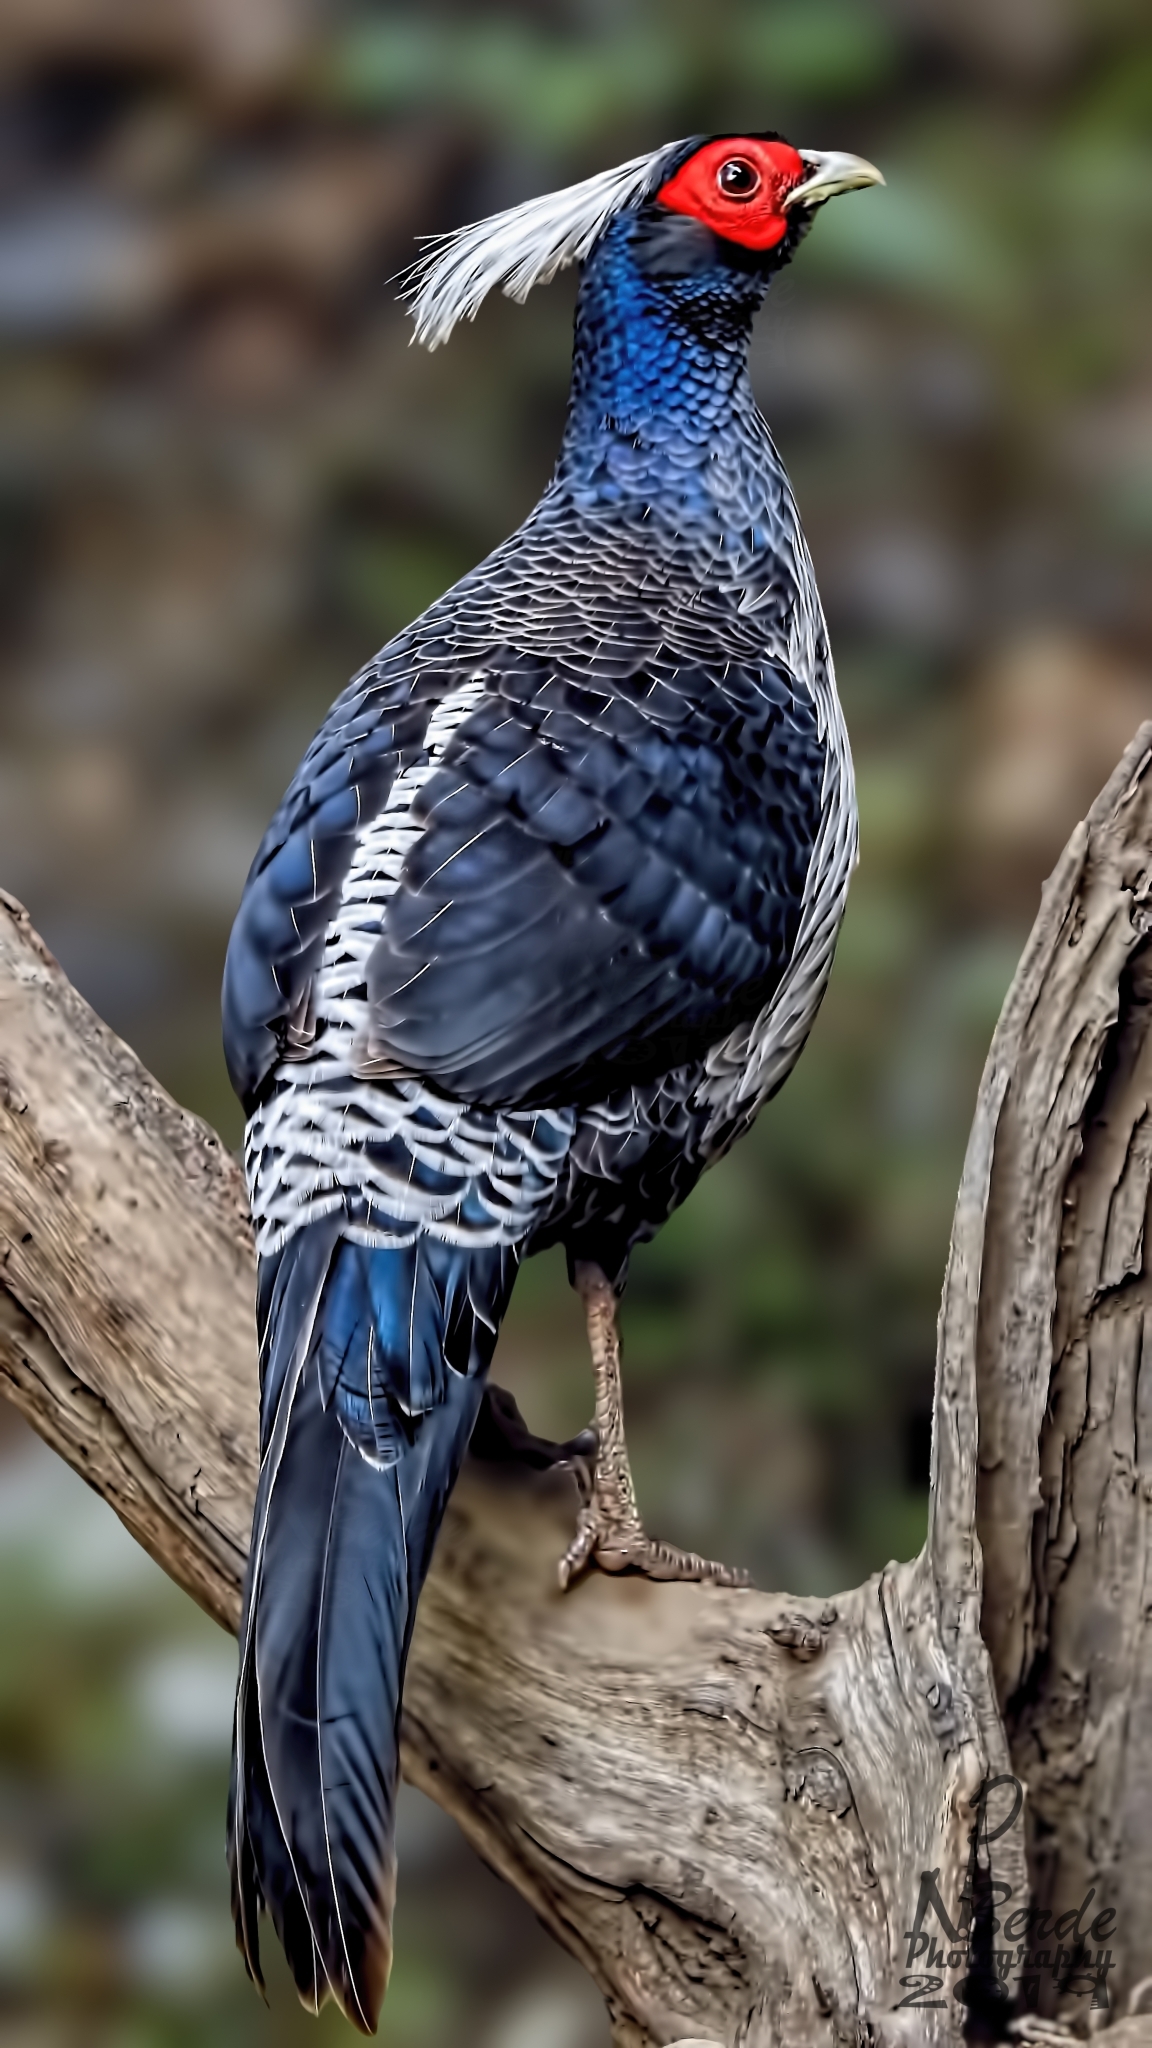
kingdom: Animalia
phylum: Chordata
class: Aves
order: Galliformes
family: Phasianidae
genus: Lophura
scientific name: Lophura leucomelanos
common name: Kalij pheasant
